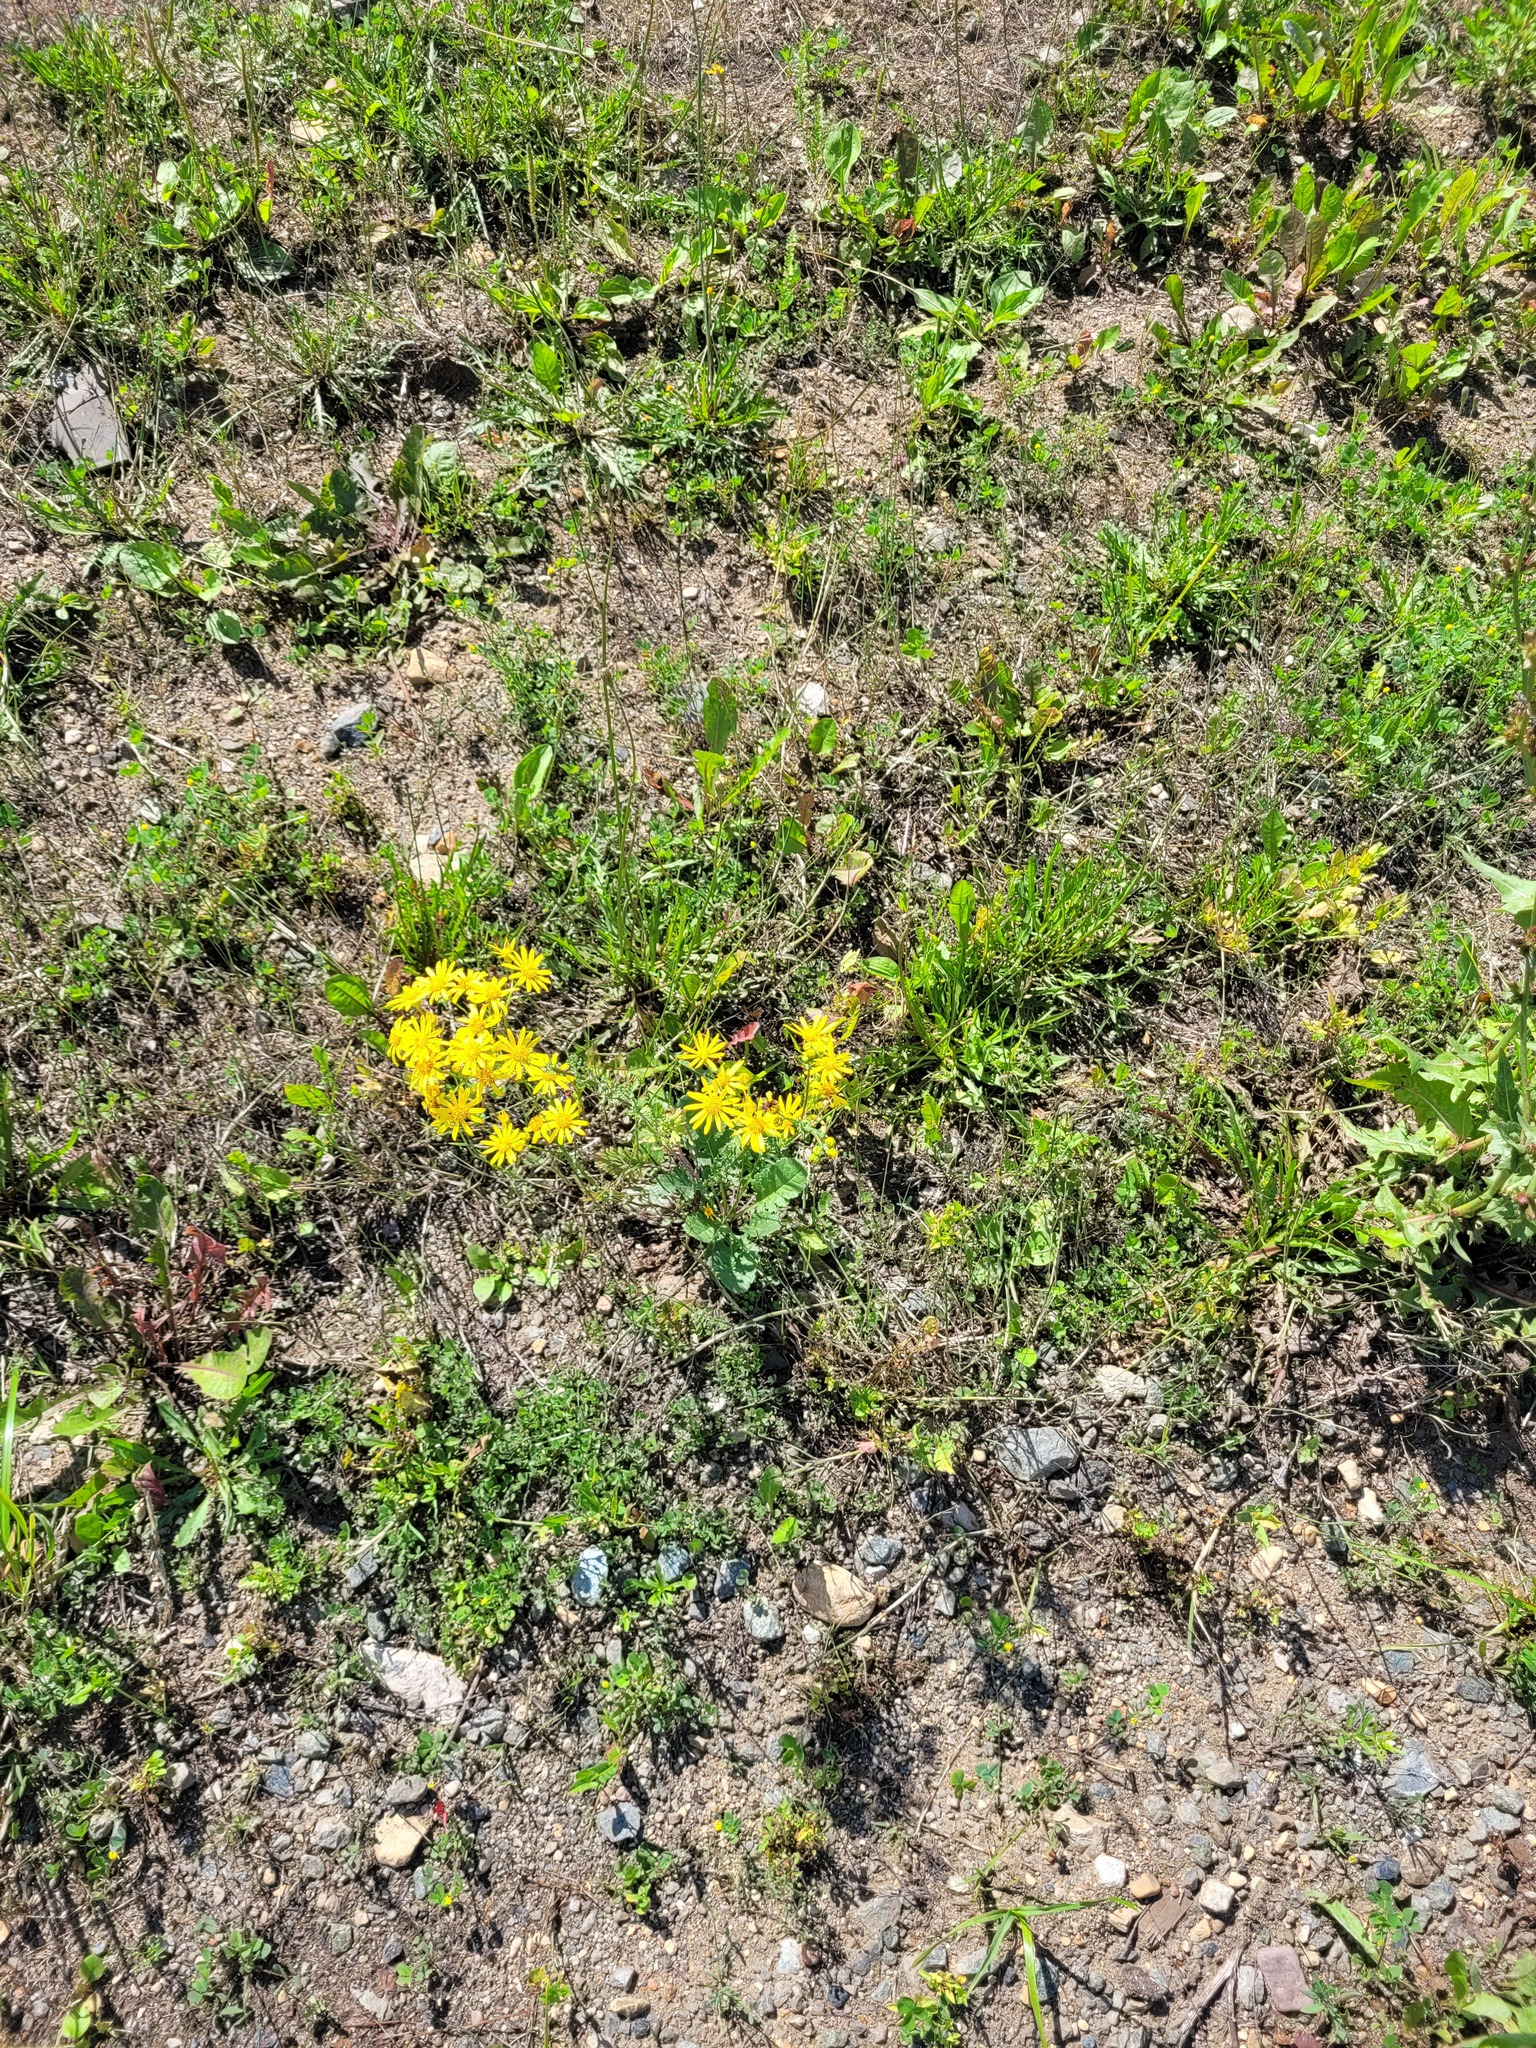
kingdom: Plantae
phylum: Tracheophyta
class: Magnoliopsida
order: Asterales
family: Asteraceae
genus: Jacobaea
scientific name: Jacobaea vulgaris
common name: Stinking willie
